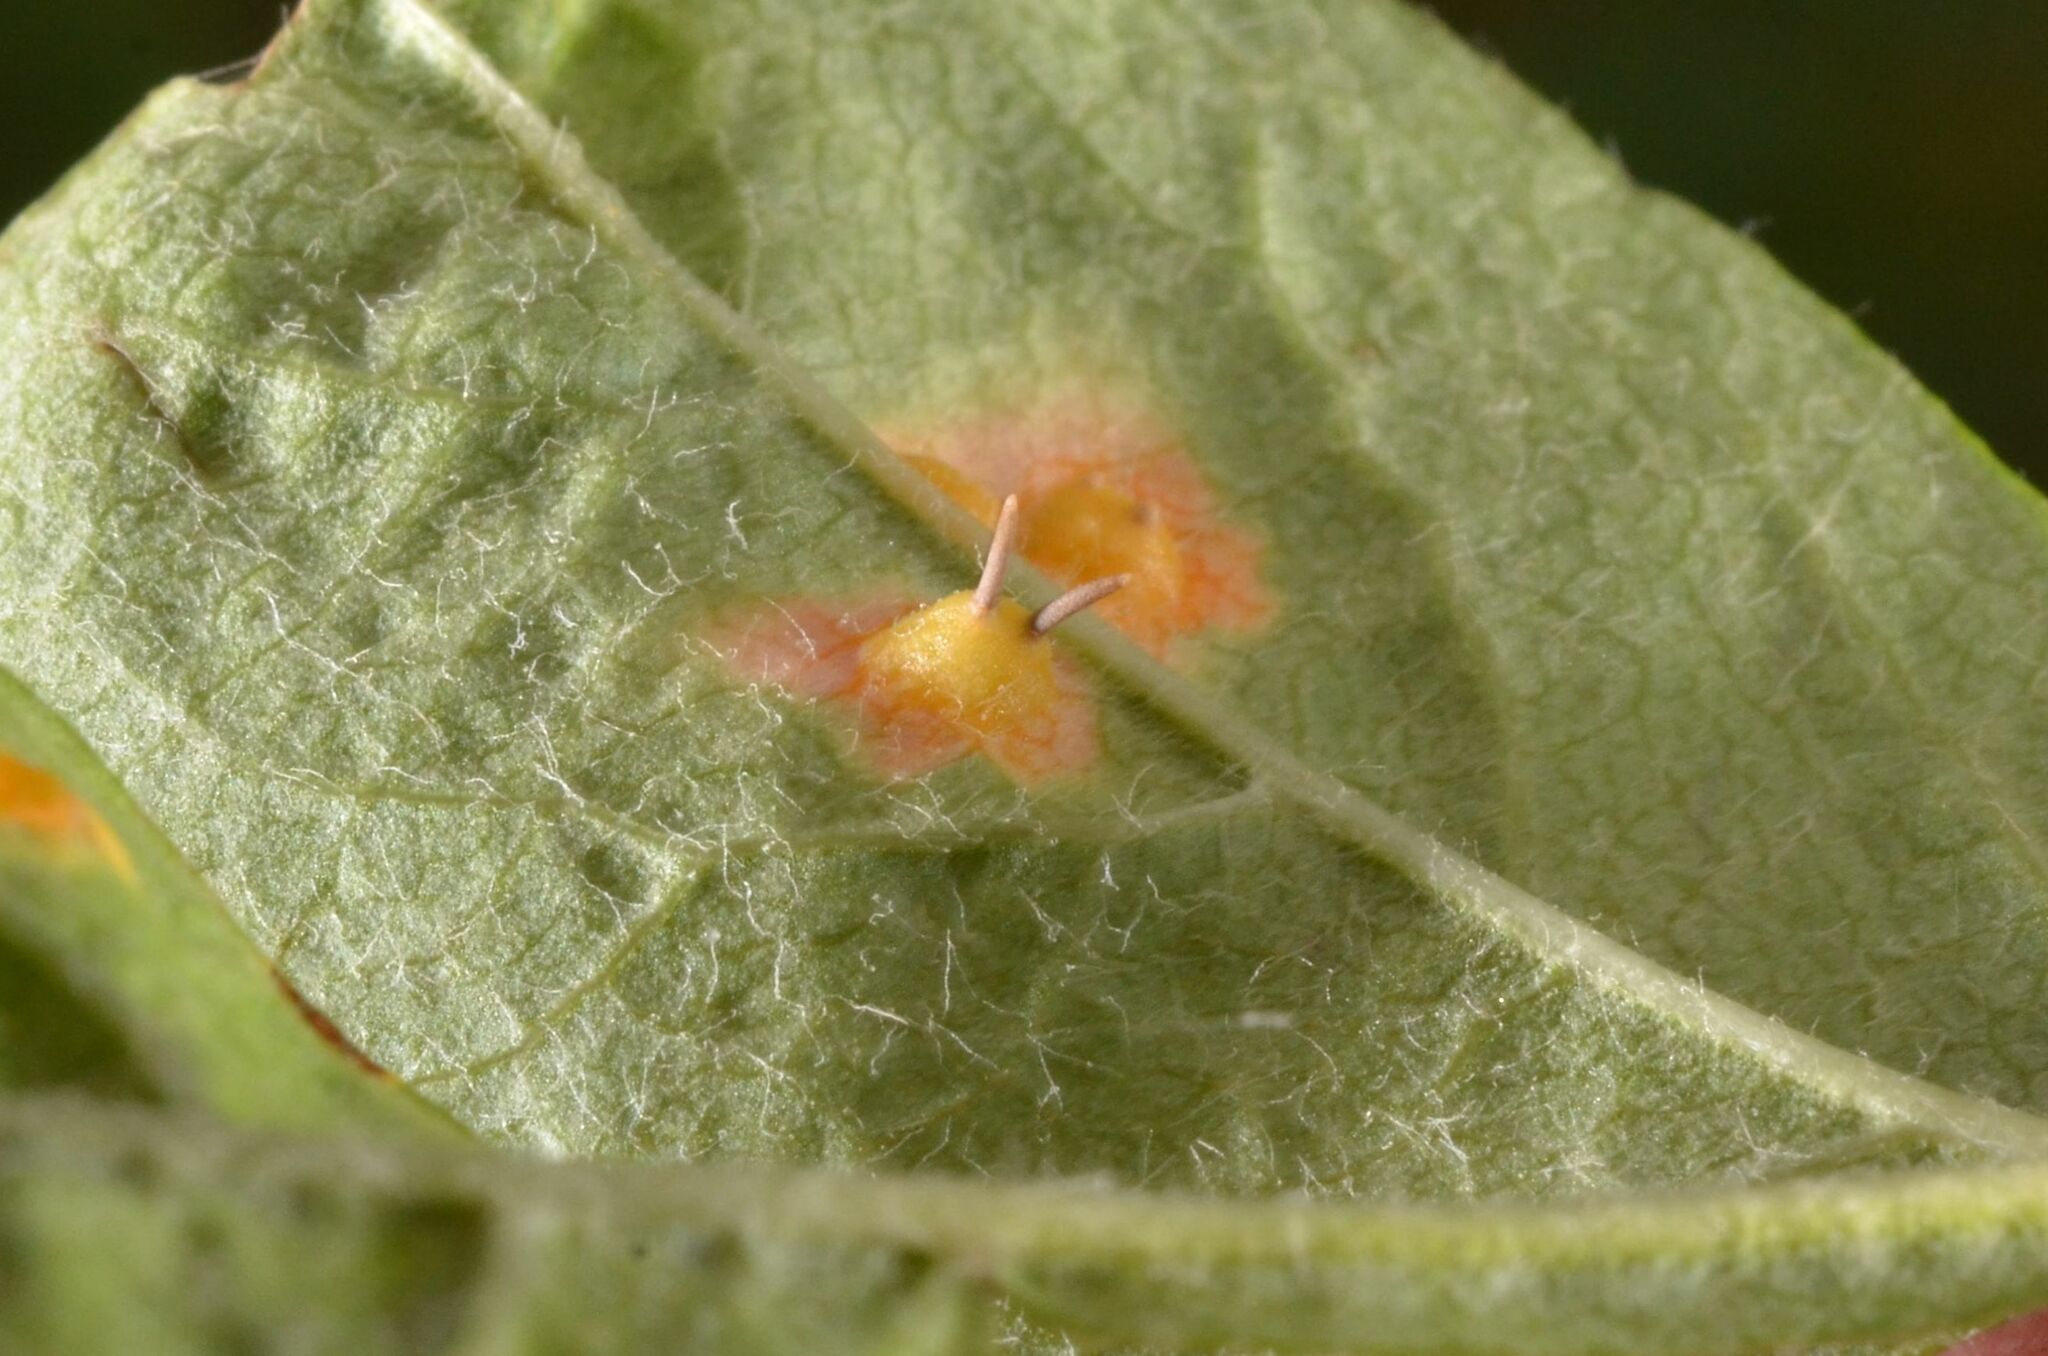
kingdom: Fungi
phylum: Basidiomycota
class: Pucciniomycetes
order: Pucciniales
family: Gymnosporangiaceae
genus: Gymnosporangium
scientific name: Gymnosporangium cornutum
